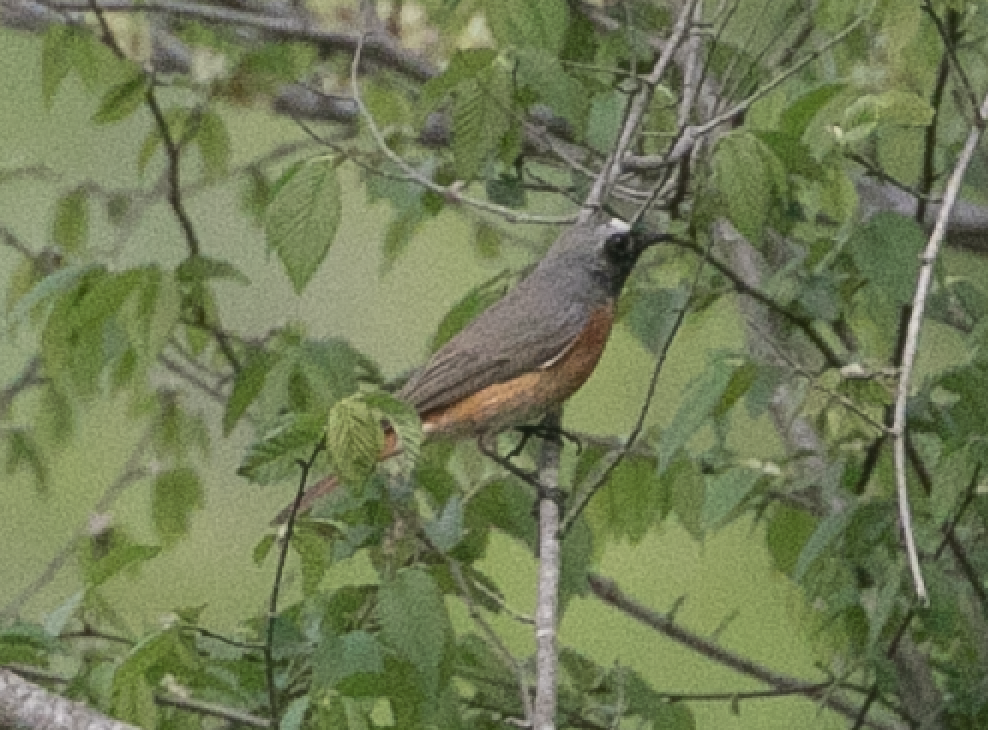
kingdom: Animalia
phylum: Chordata
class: Aves
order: Passeriformes
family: Muscicapidae
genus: Phoenicurus
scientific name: Phoenicurus phoenicurus
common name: Common redstart
